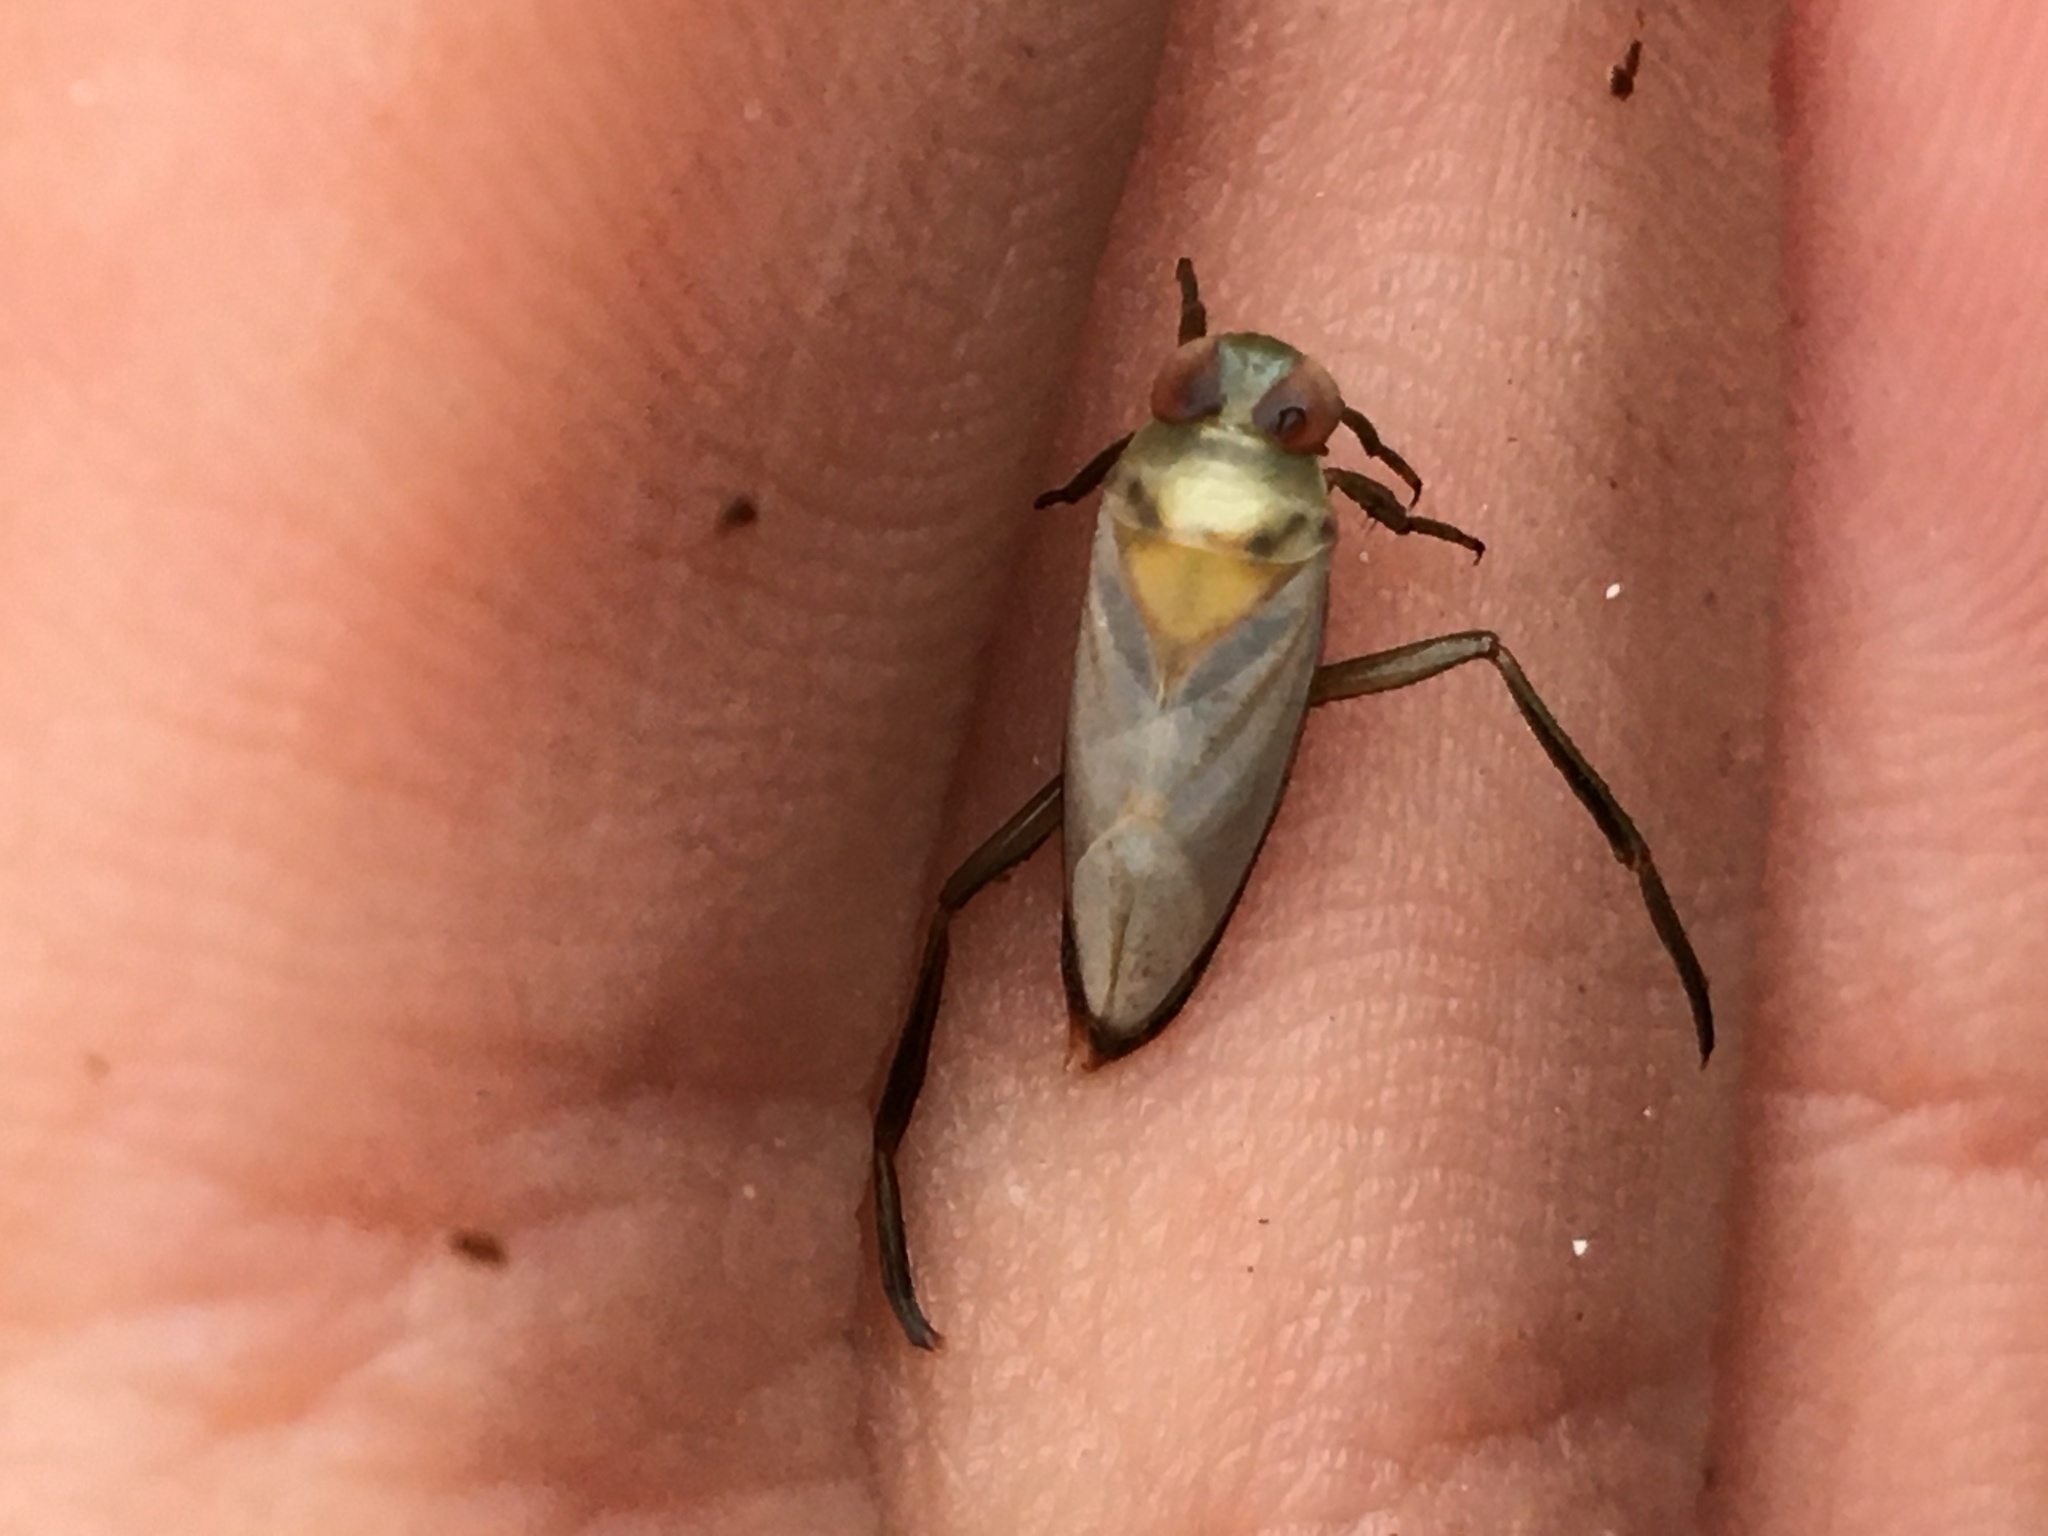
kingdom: Animalia
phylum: Arthropoda
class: Insecta
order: Hemiptera
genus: Paranecta
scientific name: Paranecta
